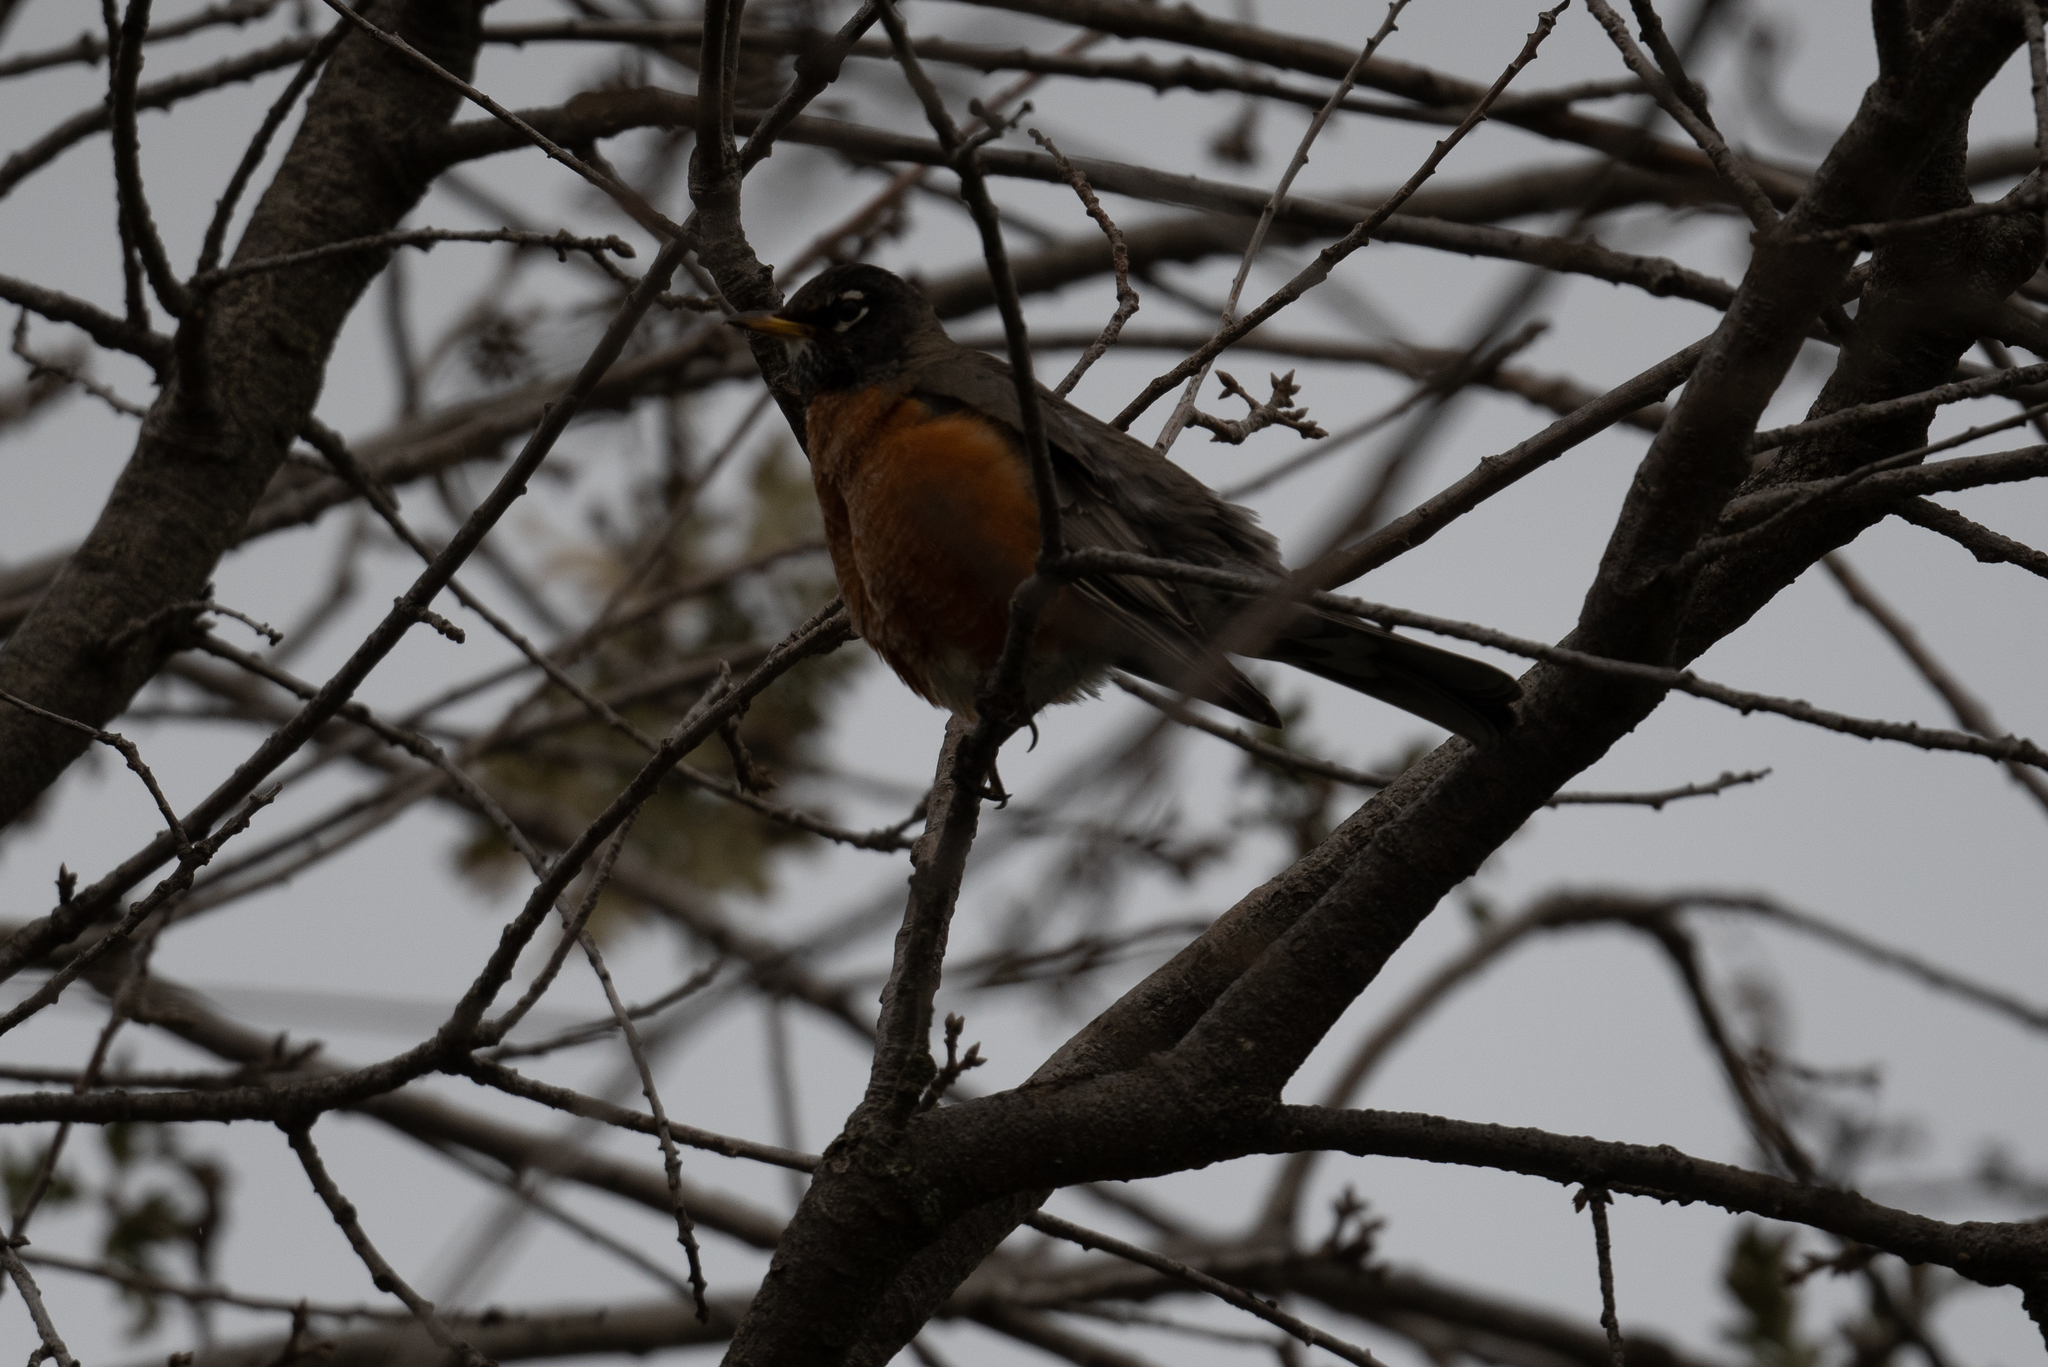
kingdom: Animalia
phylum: Chordata
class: Aves
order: Passeriformes
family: Turdidae
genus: Turdus
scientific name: Turdus migratorius
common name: American robin
